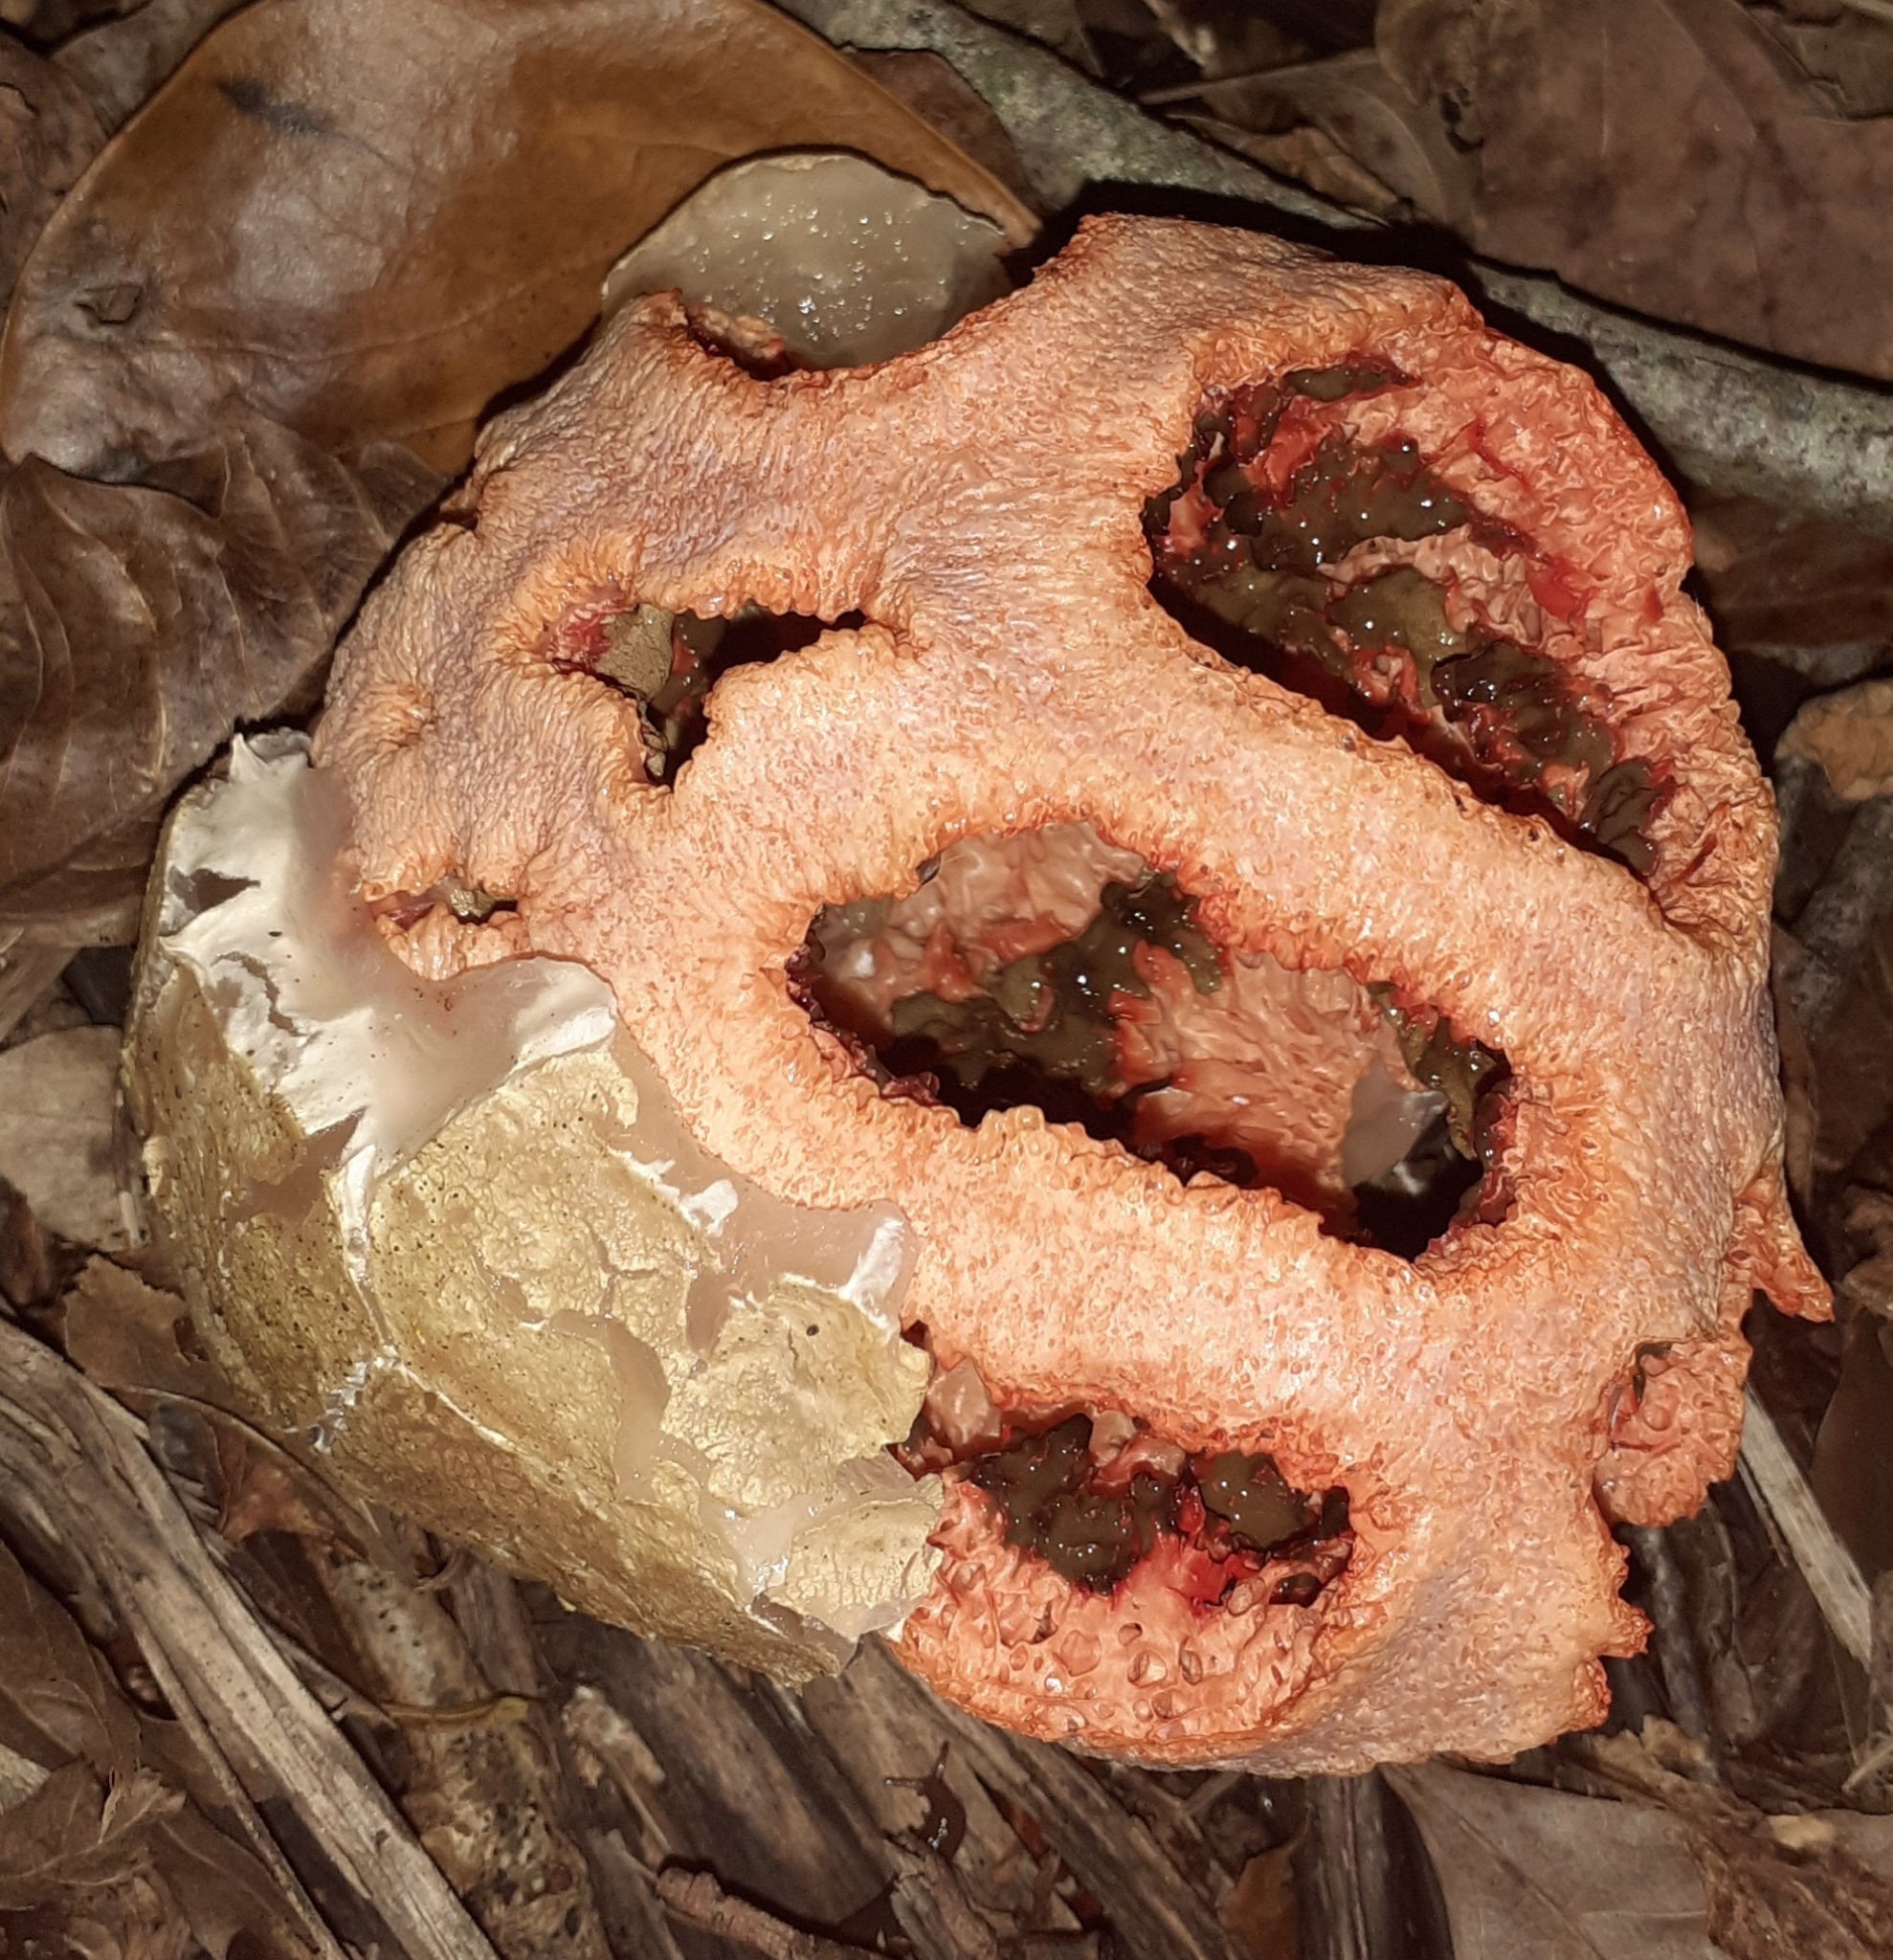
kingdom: Fungi
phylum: Basidiomycota
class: Agaricomycetes
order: Phallales
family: Phallaceae
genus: Clathrus
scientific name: Clathrus ruber
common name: Red cage
